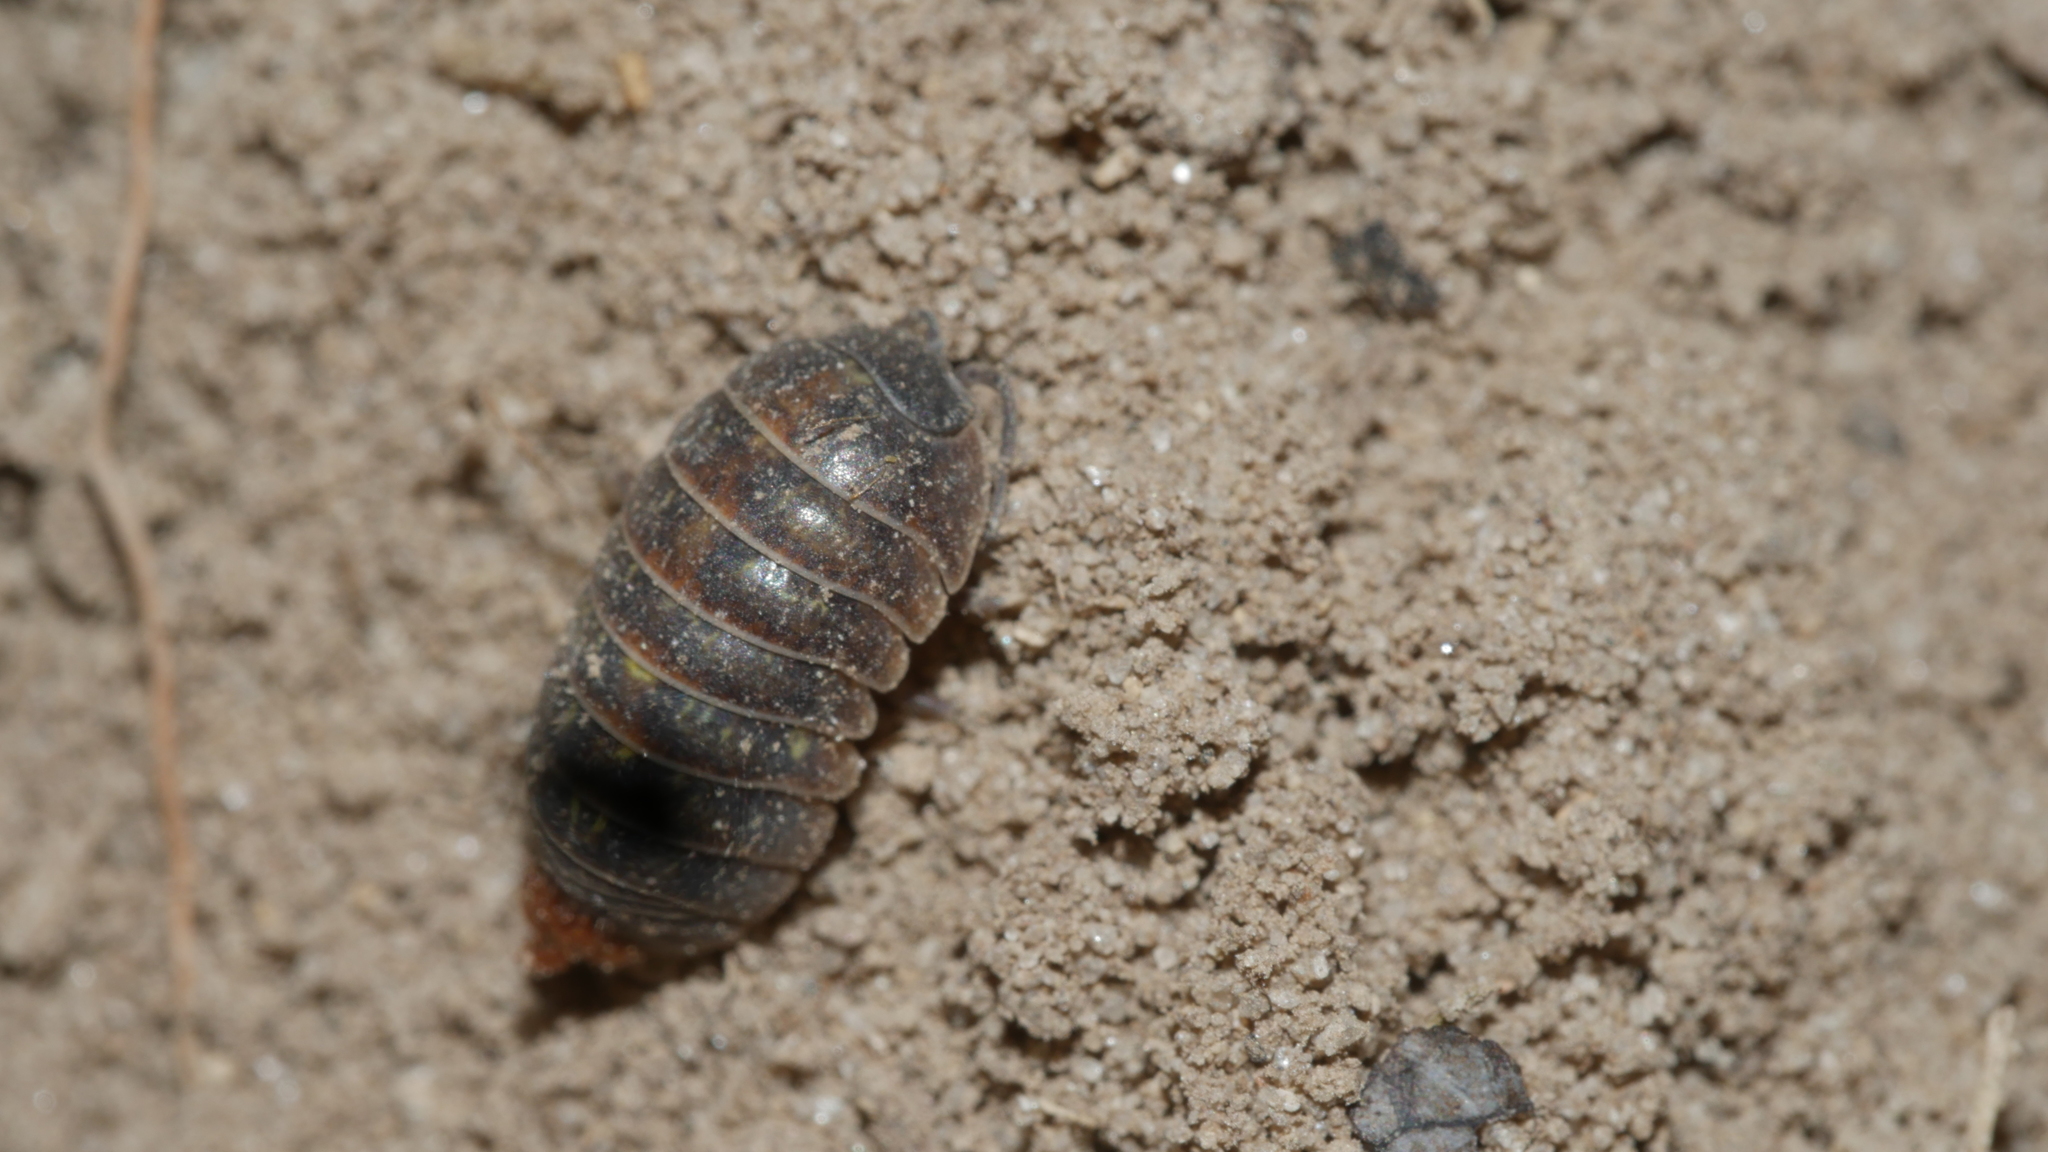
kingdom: Animalia
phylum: Arthropoda
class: Malacostraca
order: Isopoda
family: Armadillidiidae
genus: Armadillidium
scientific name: Armadillidium vulgare
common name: Common pill woodlouse
